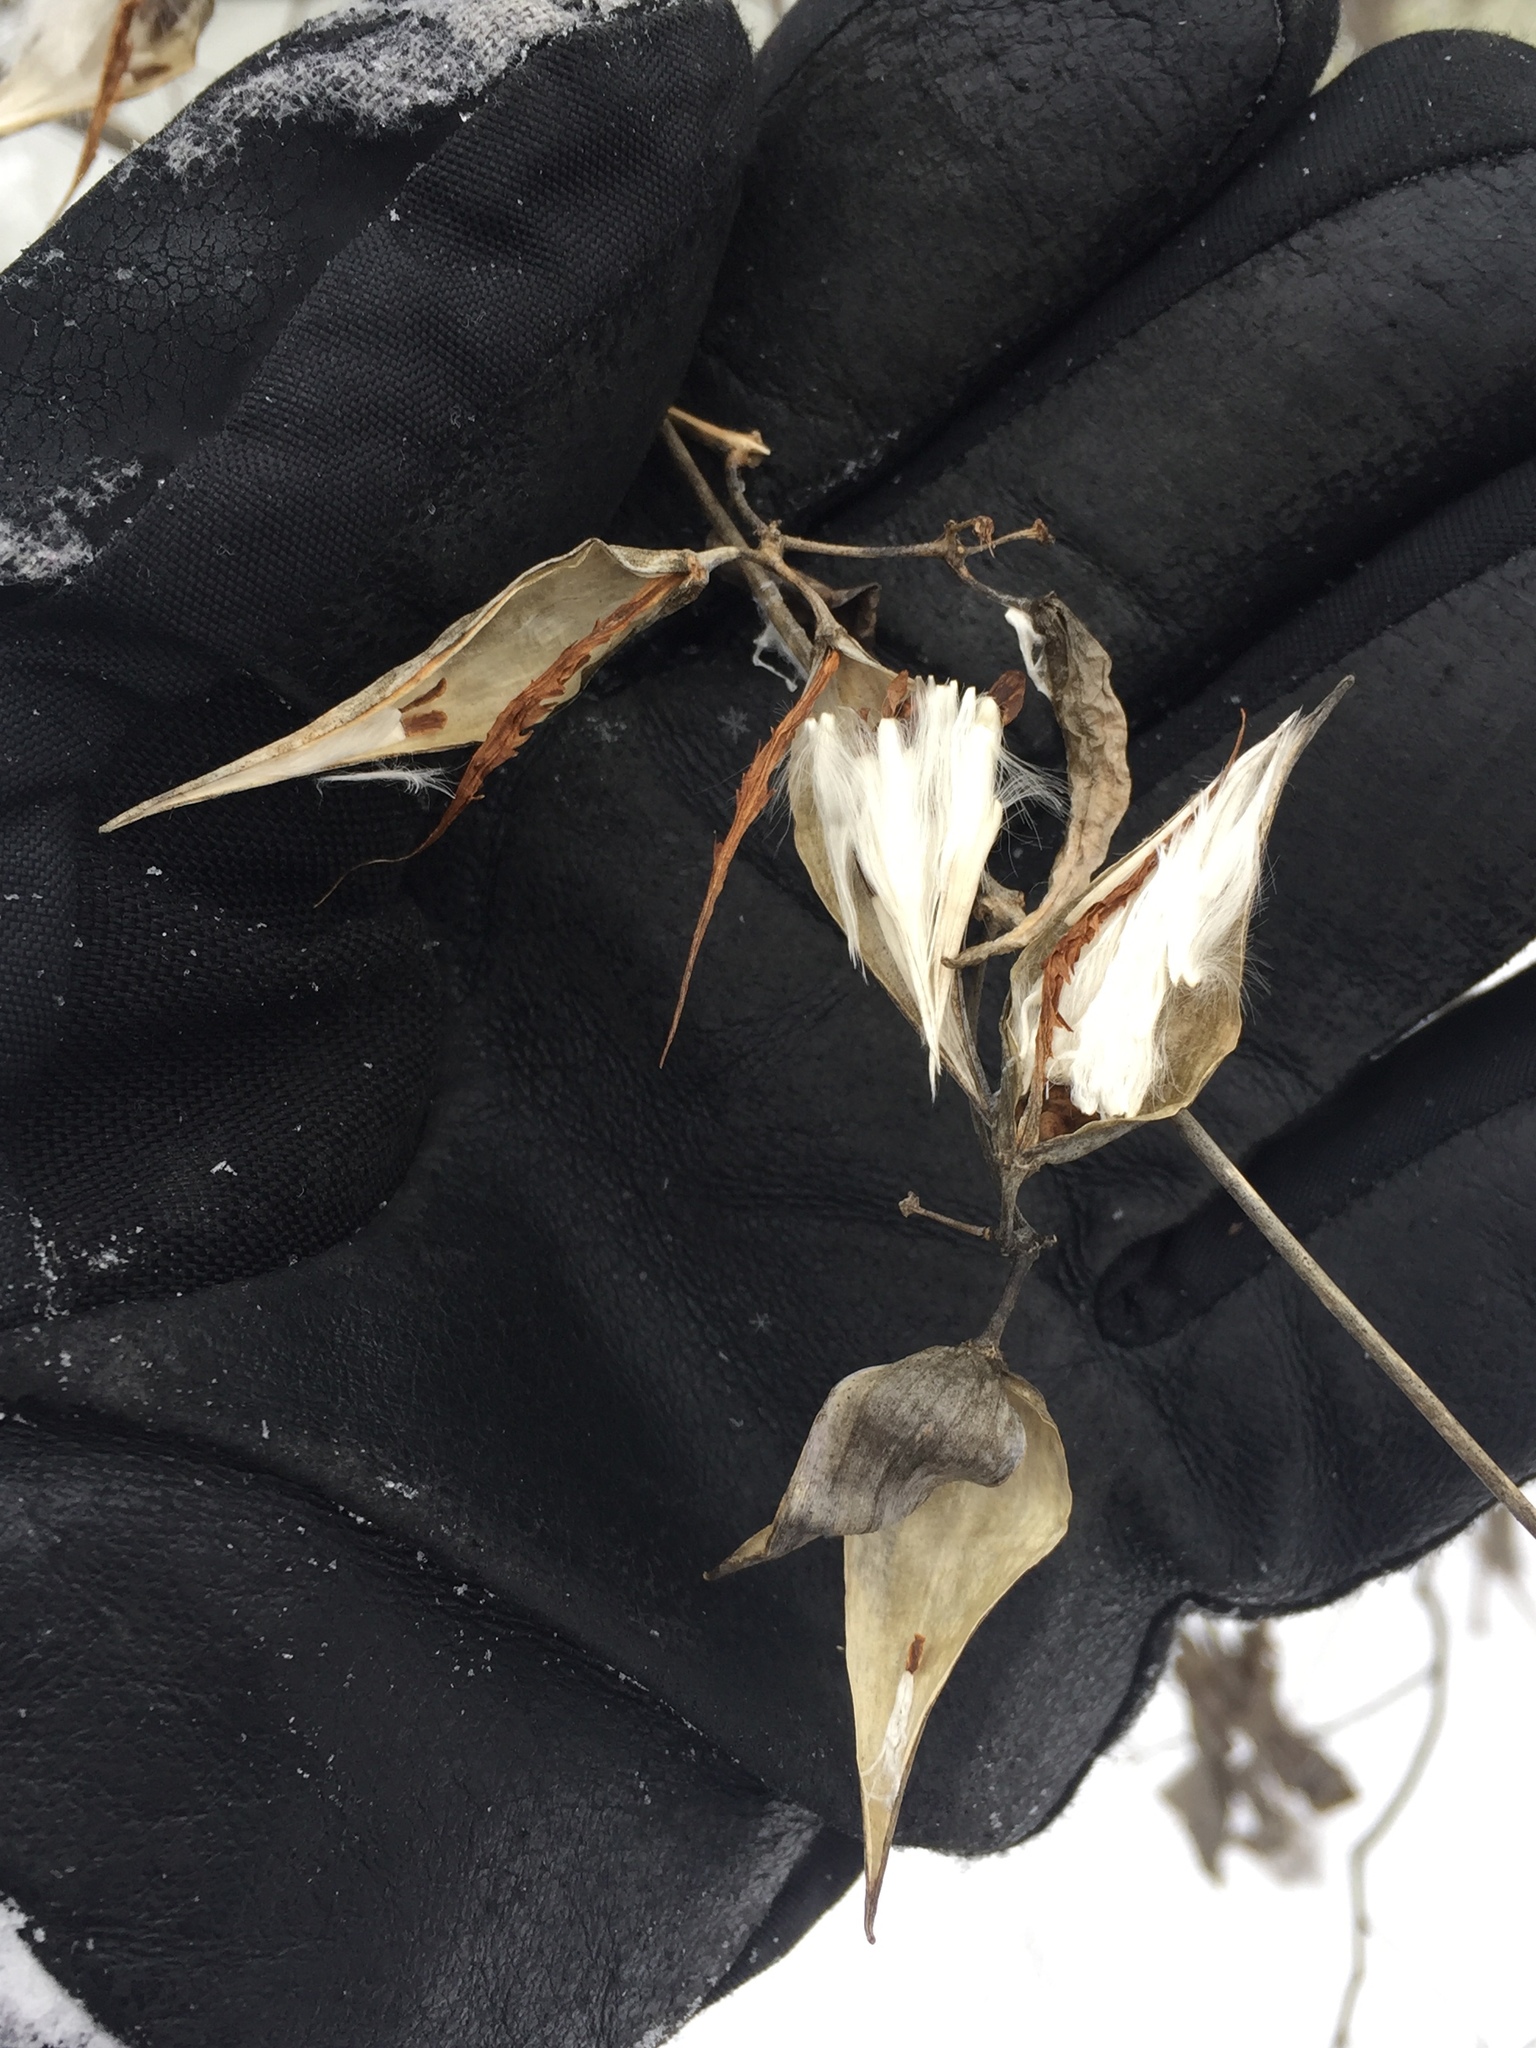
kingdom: Plantae
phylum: Tracheophyta
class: Magnoliopsida
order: Gentianales
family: Apocynaceae
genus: Vincetoxicum
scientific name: Vincetoxicum rossicum
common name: Dog-strangling vine
